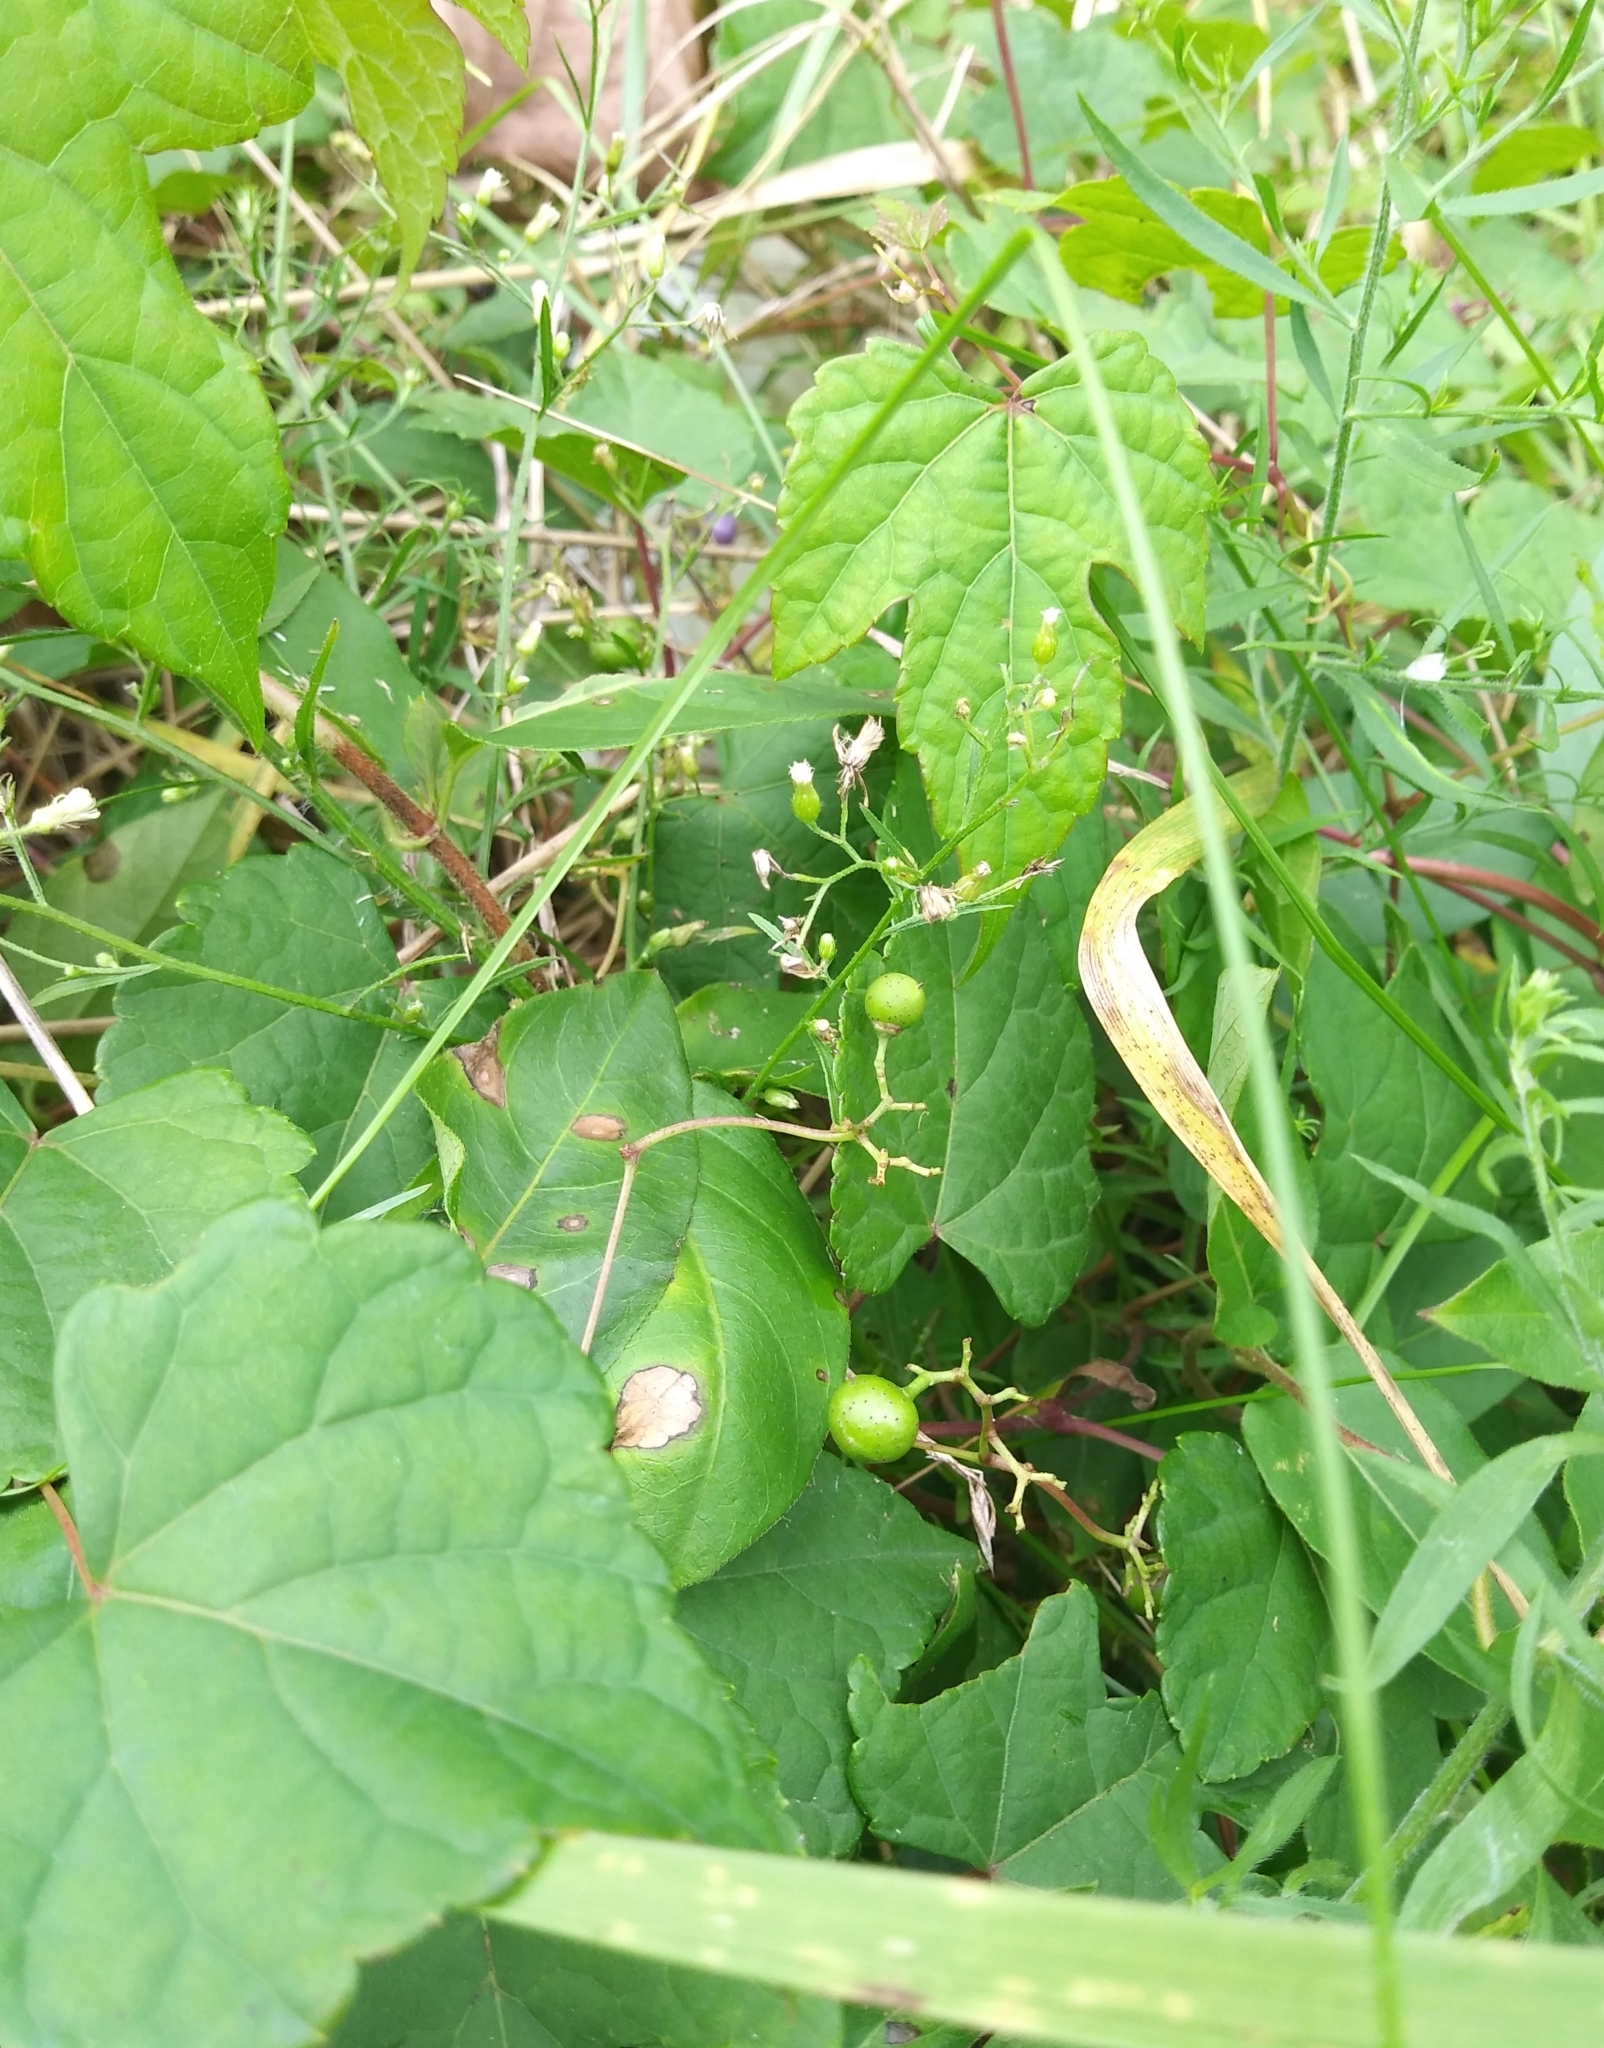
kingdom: Plantae
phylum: Tracheophyta
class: Magnoliopsida
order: Vitales
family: Vitaceae
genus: Ampelopsis
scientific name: Ampelopsis glandulosa
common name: Amur peppervine
